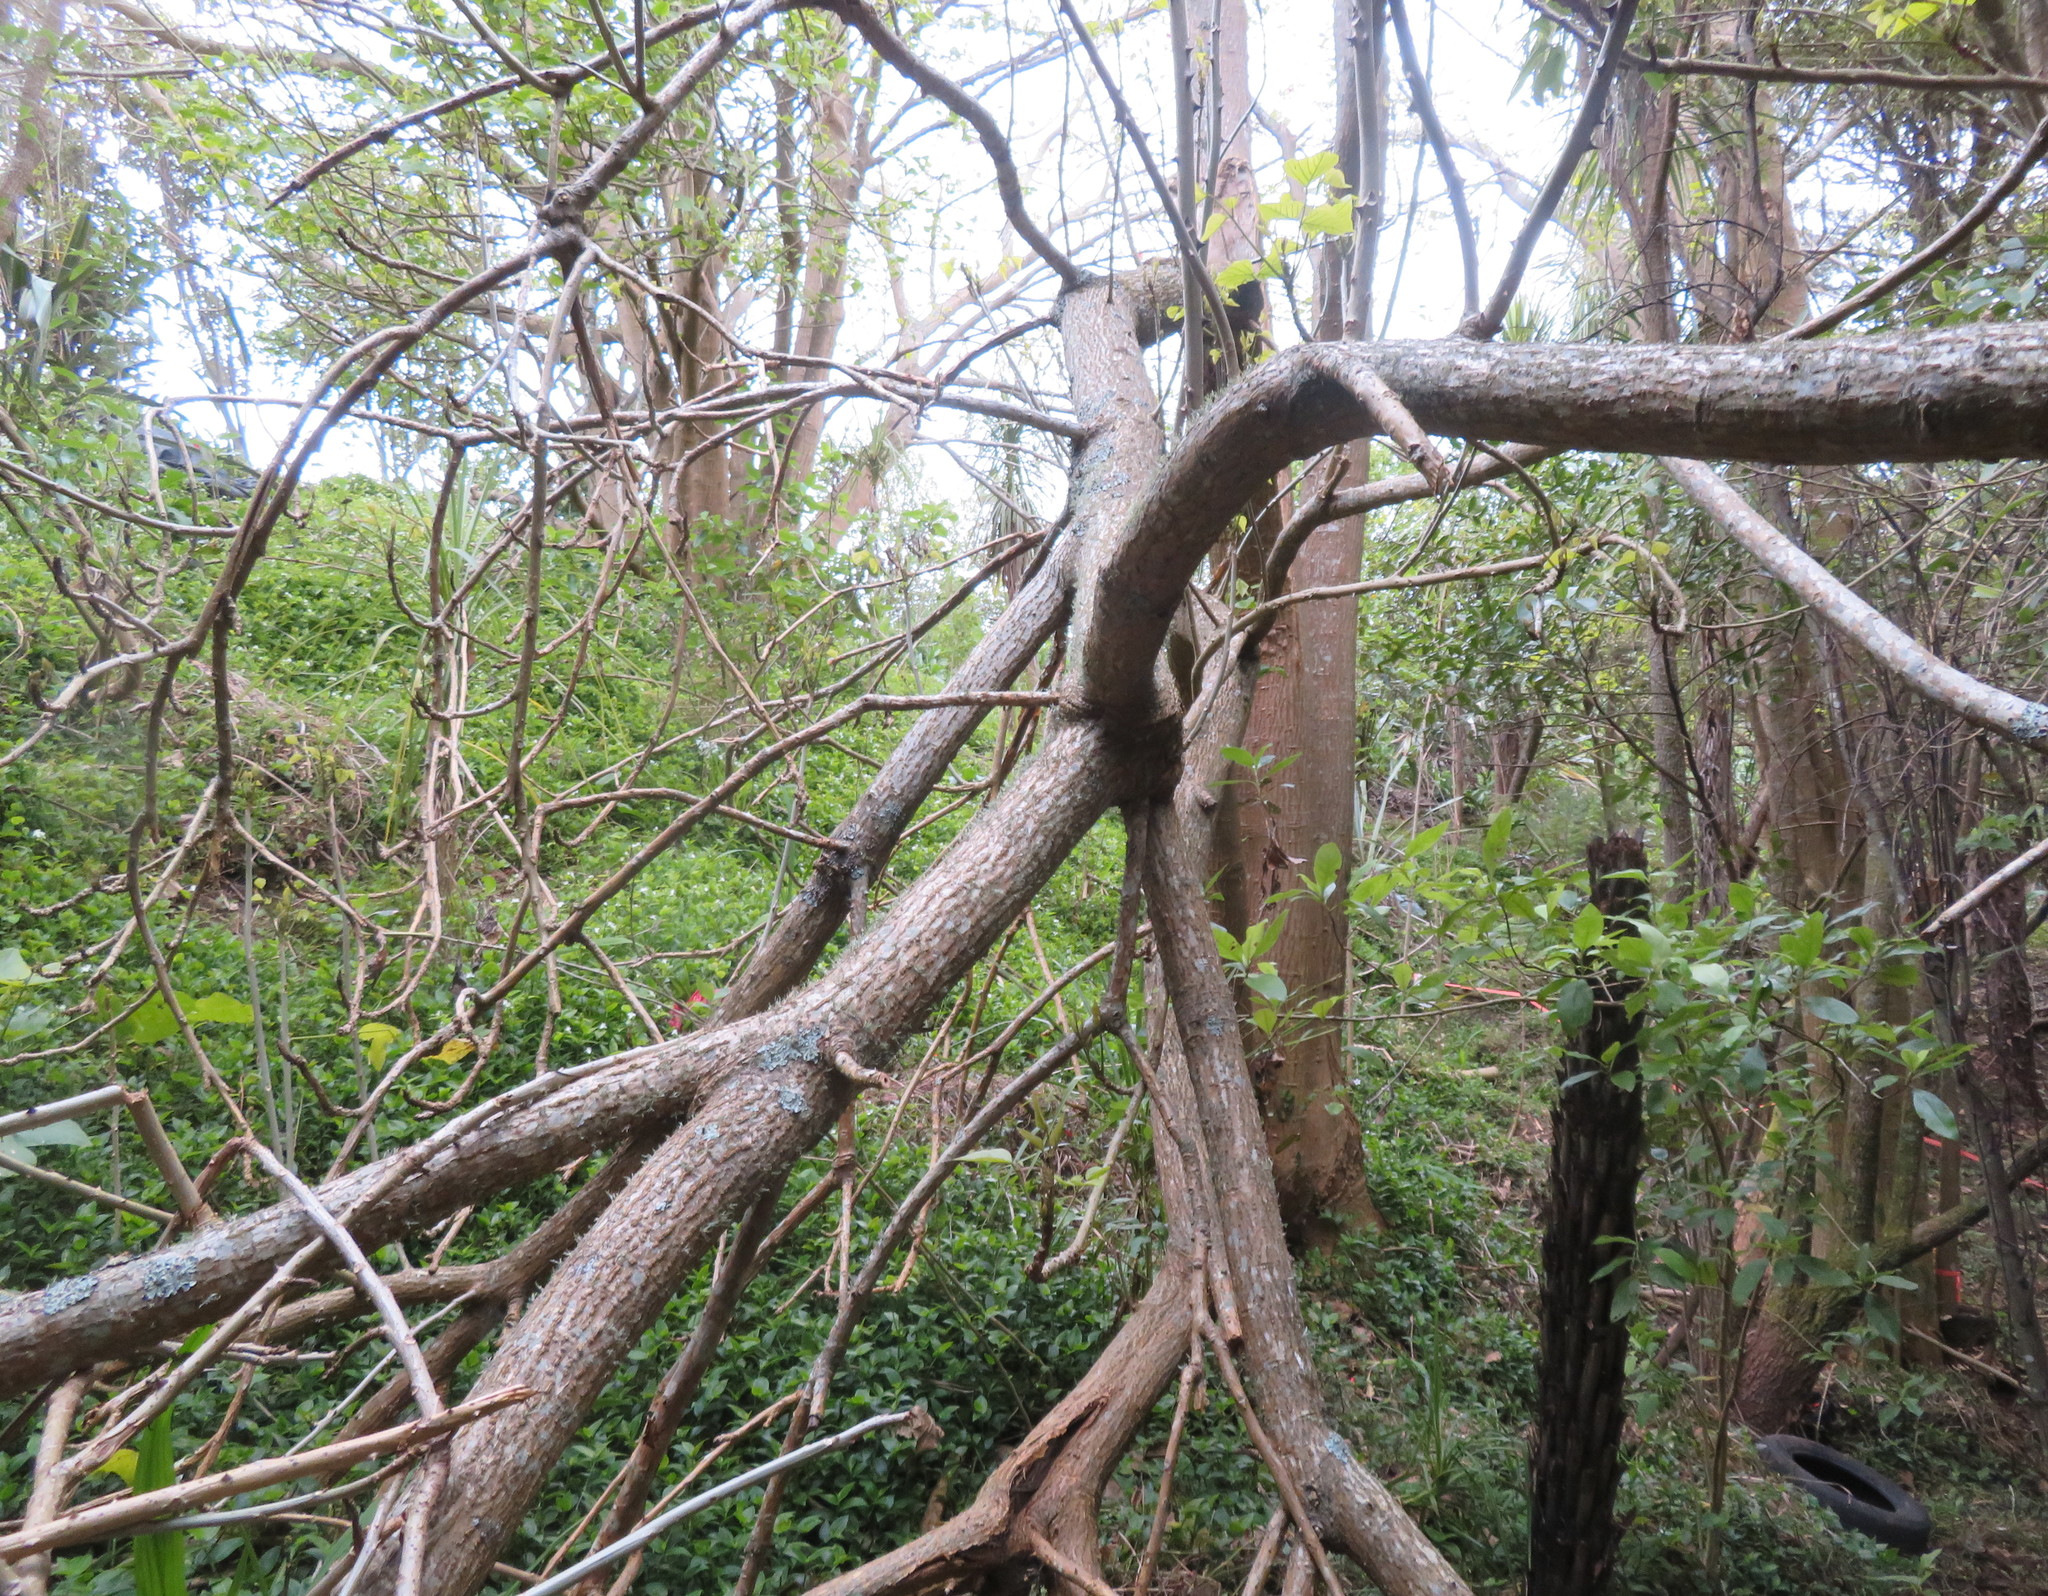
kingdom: Plantae
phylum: Tracheophyta
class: Liliopsida
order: Commelinales
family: Commelinaceae
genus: Tradescantia
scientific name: Tradescantia fluminensis
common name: Wandering-jew
